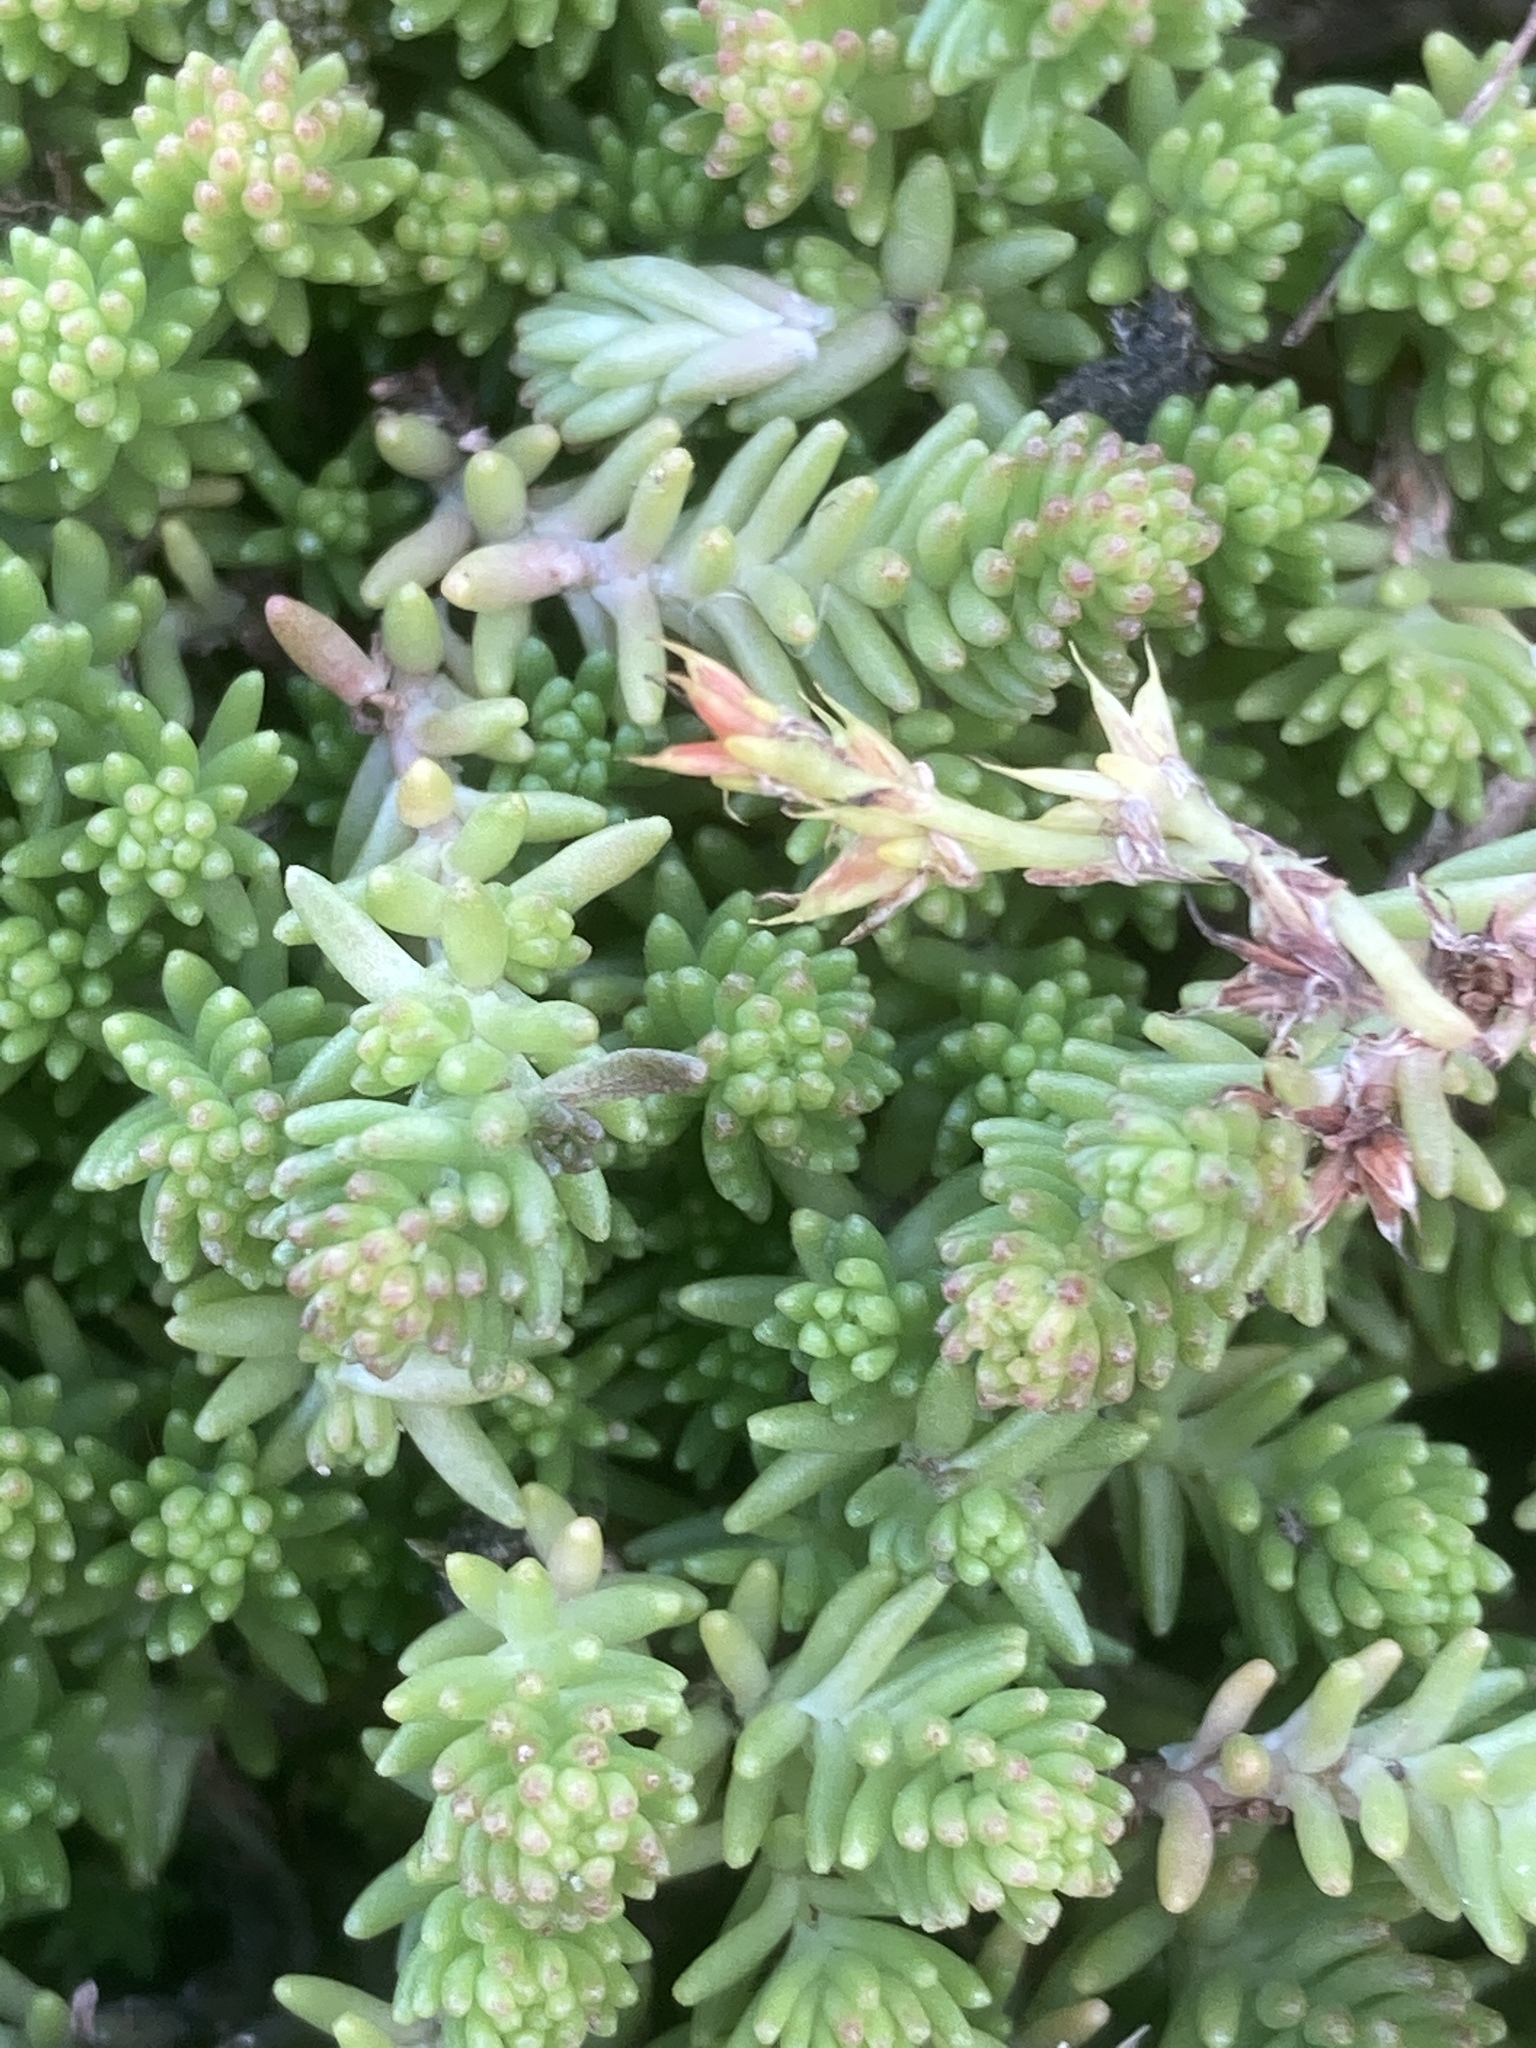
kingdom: Plantae
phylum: Tracheophyta
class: Magnoliopsida
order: Saxifragales
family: Crassulaceae
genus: Sedum
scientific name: Sedum sexangulare
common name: Tasteless stonecrop
